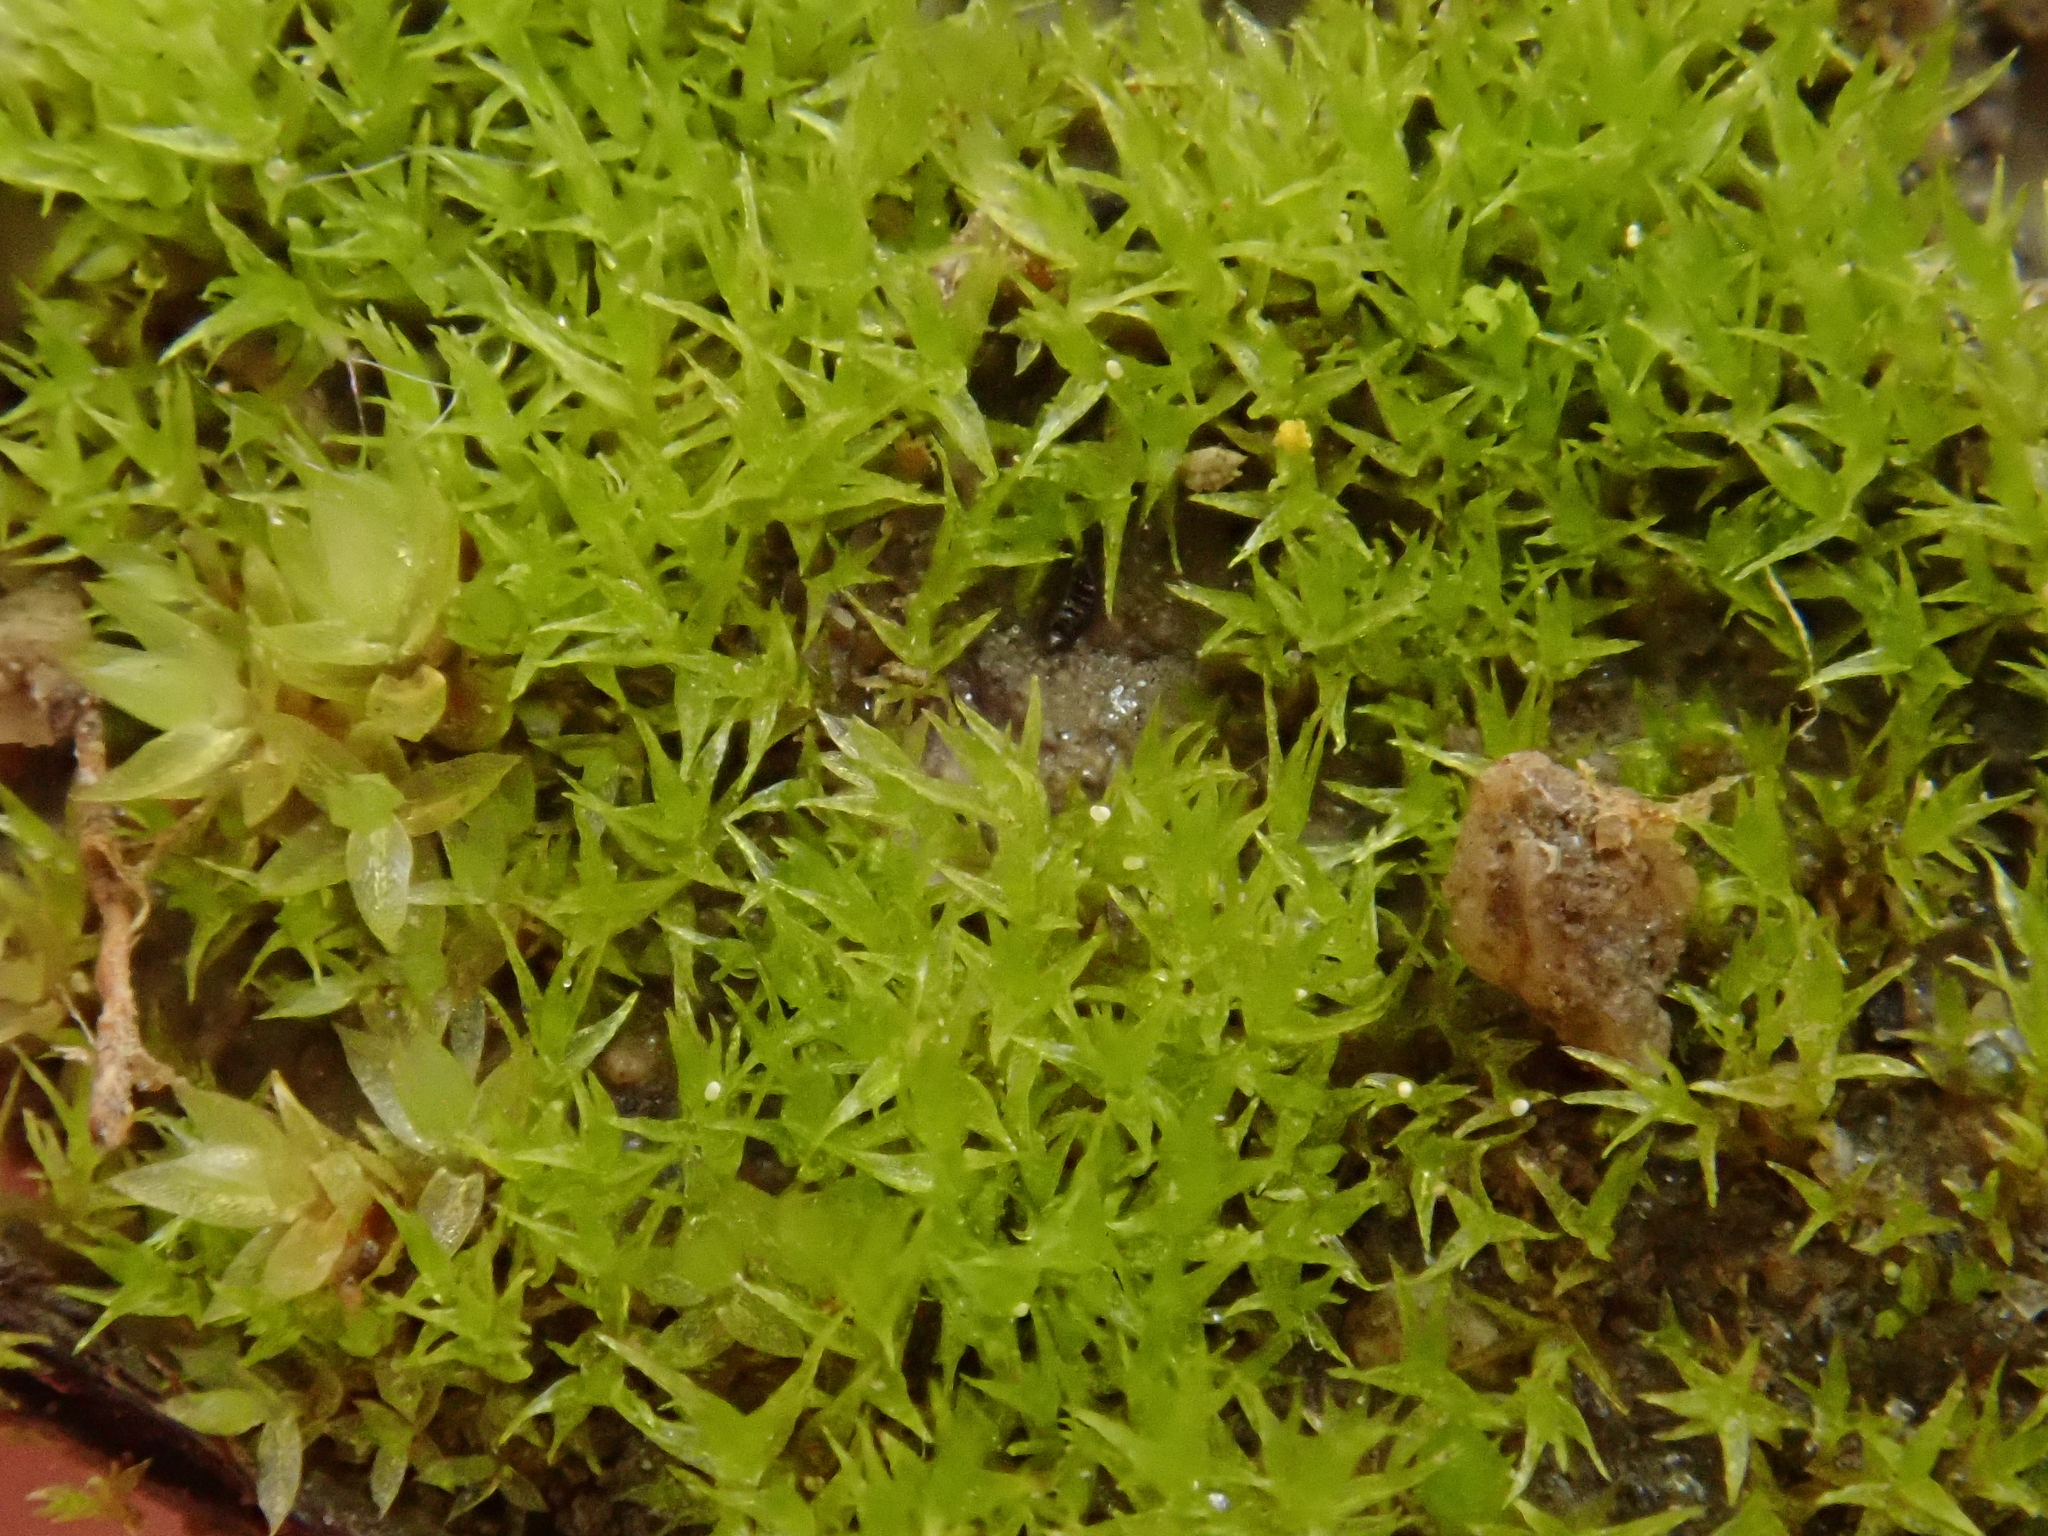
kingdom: Plantae
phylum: Bryophyta
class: Bryopsida
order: Dicranales
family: Dicranellaceae
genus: Dicranella
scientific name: Dicranella staphylina
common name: Field forklet moss
